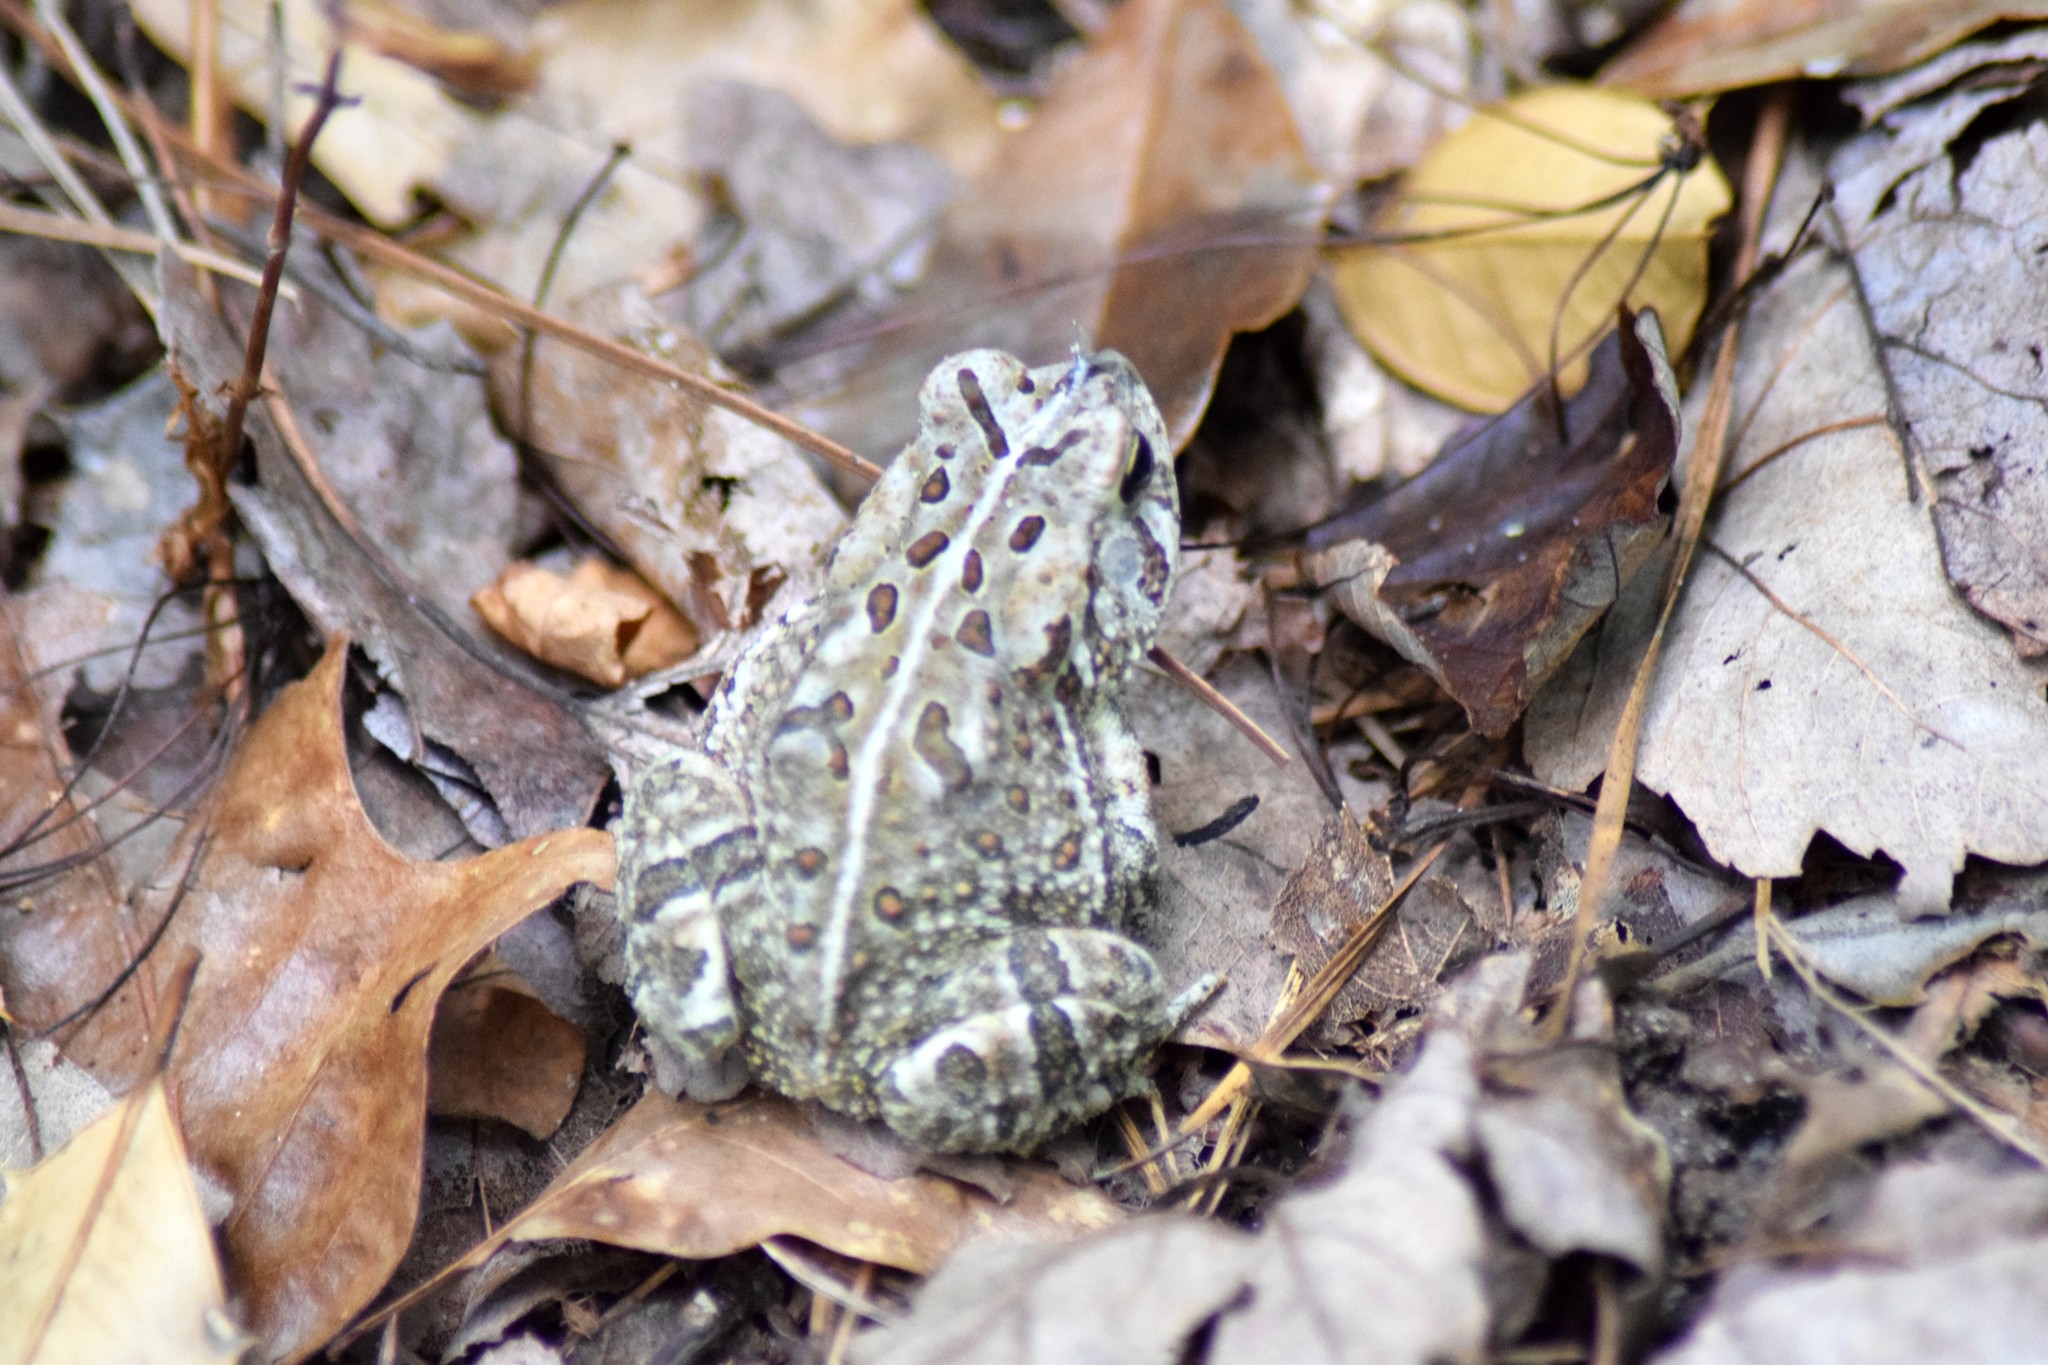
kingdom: Animalia
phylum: Chordata
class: Amphibia
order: Anura
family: Bufonidae
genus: Anaxyrus
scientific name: Anaxyrus fowleri
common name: Fowler's toad
